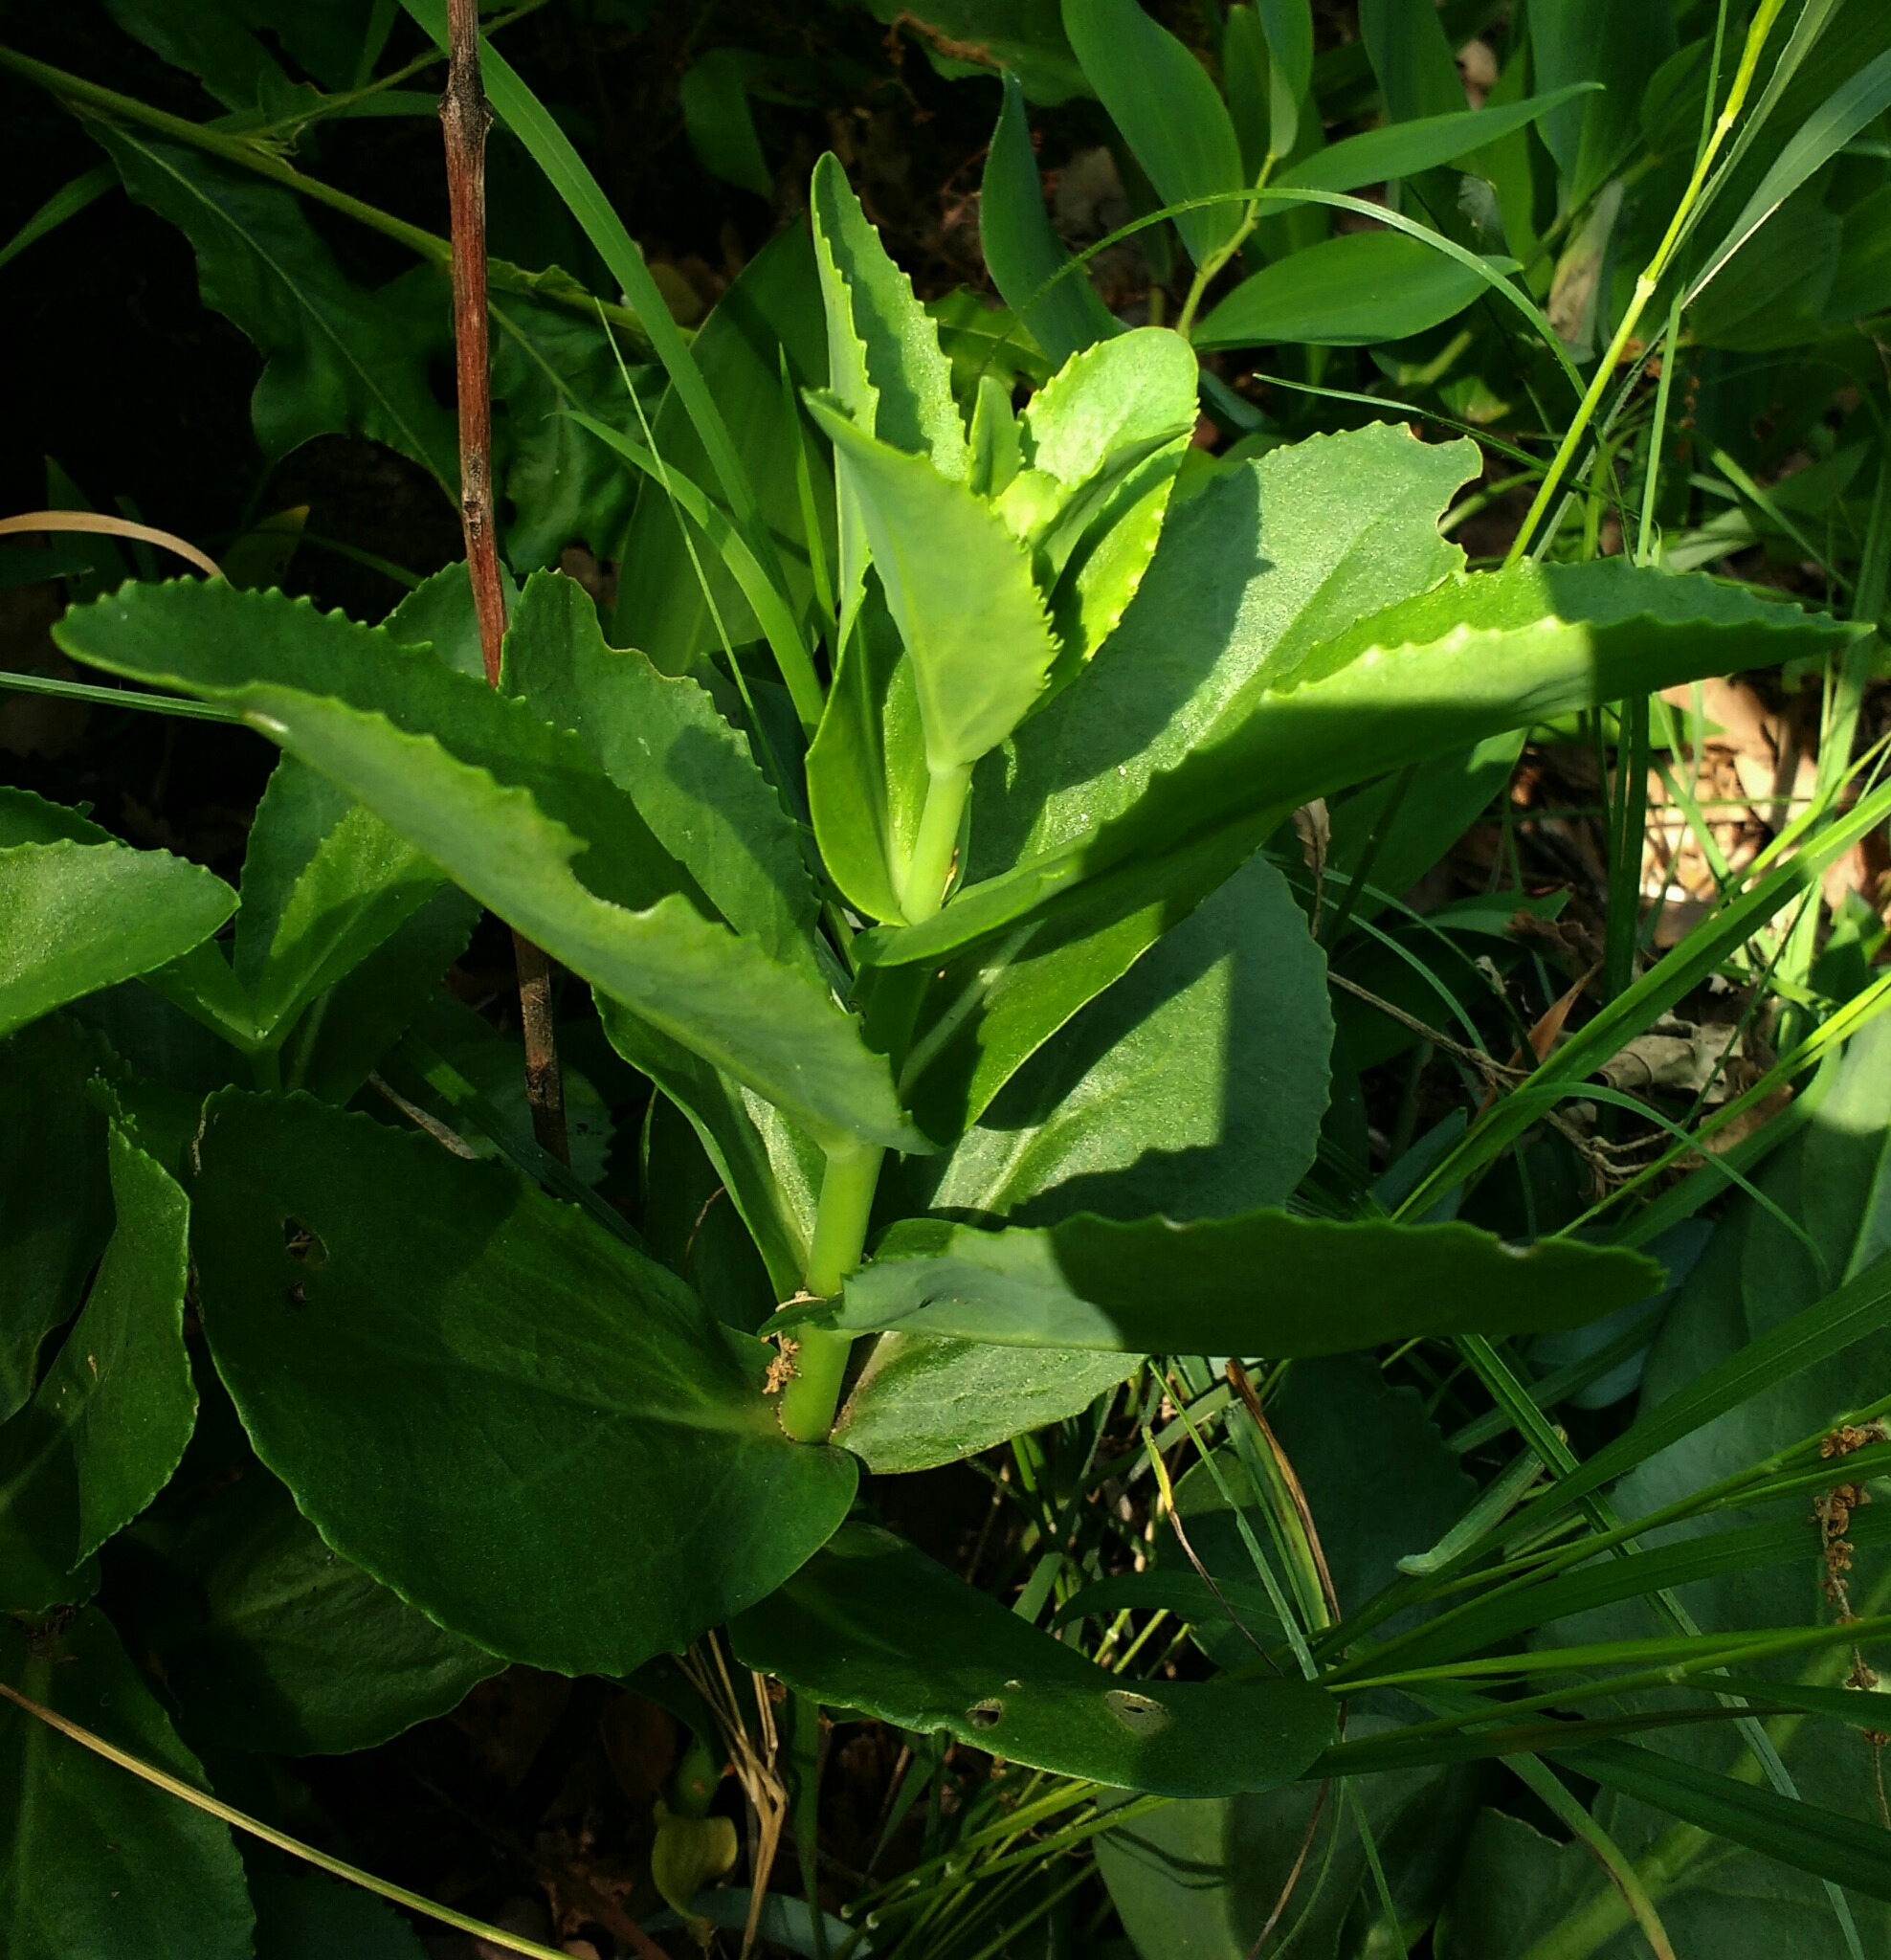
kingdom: Plantae
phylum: Tracheophyta
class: Magnoliopsida
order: Saxifragales
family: Crassulaceae
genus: Hylotelephium
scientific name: Hylotelephium maximum
